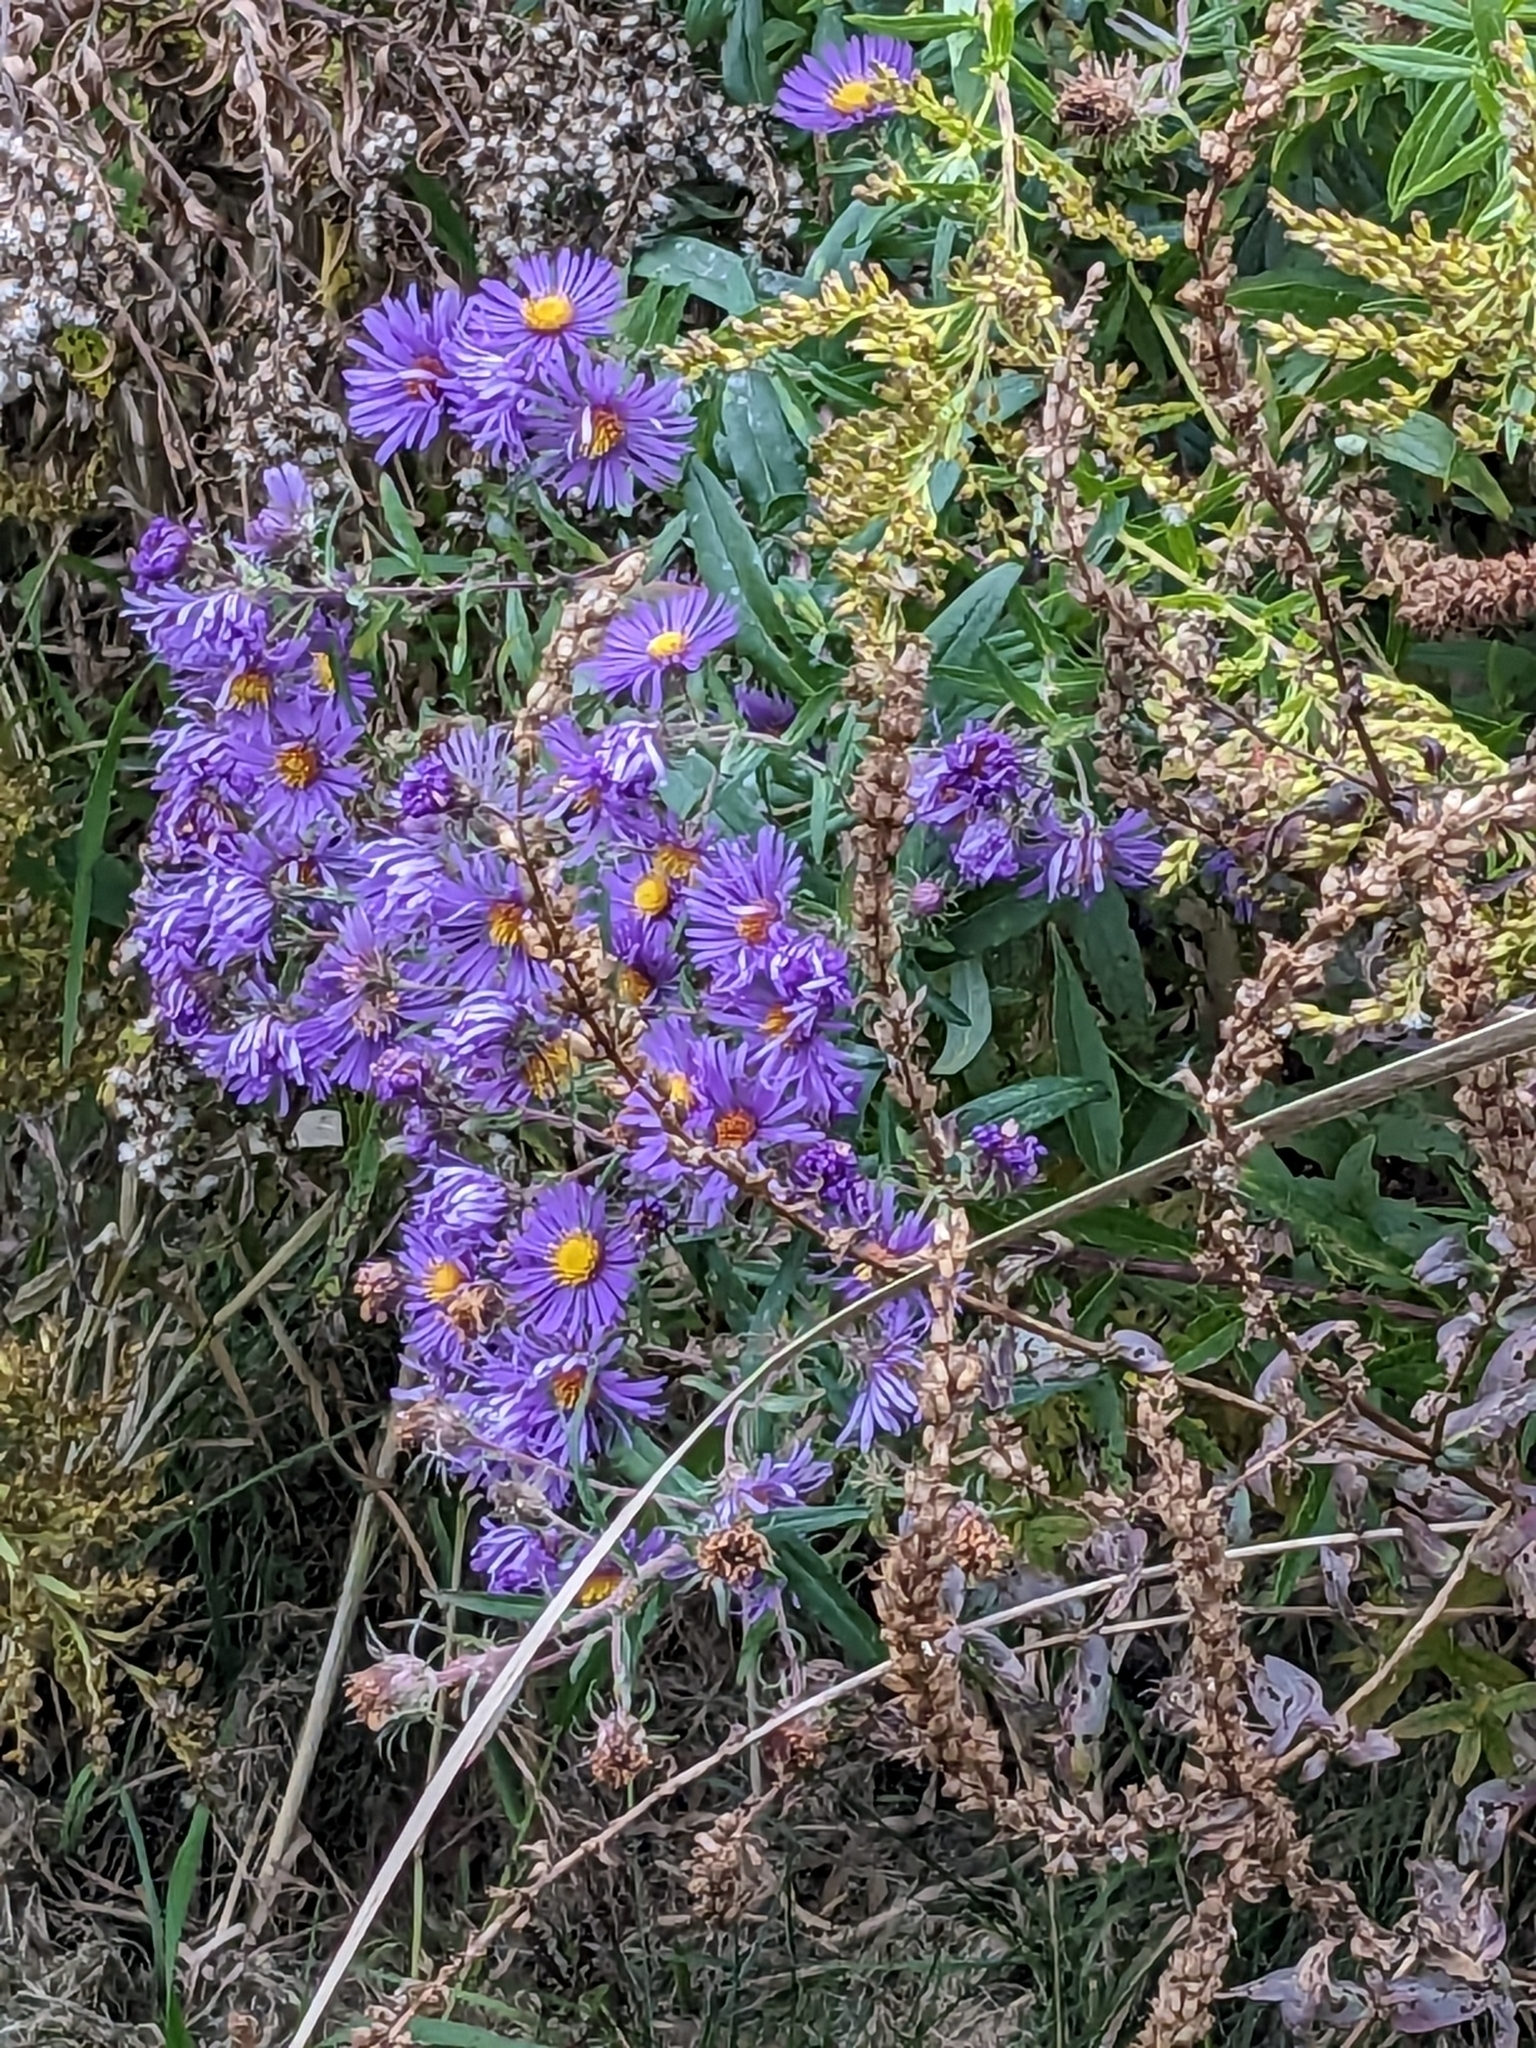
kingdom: Plantae
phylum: Tracheophyta
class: Magnoliopsida
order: Asterales
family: Asteraceae
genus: Symphyotrichum
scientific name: Symphyotrichum novae-angliae
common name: Michaelmas daisy
